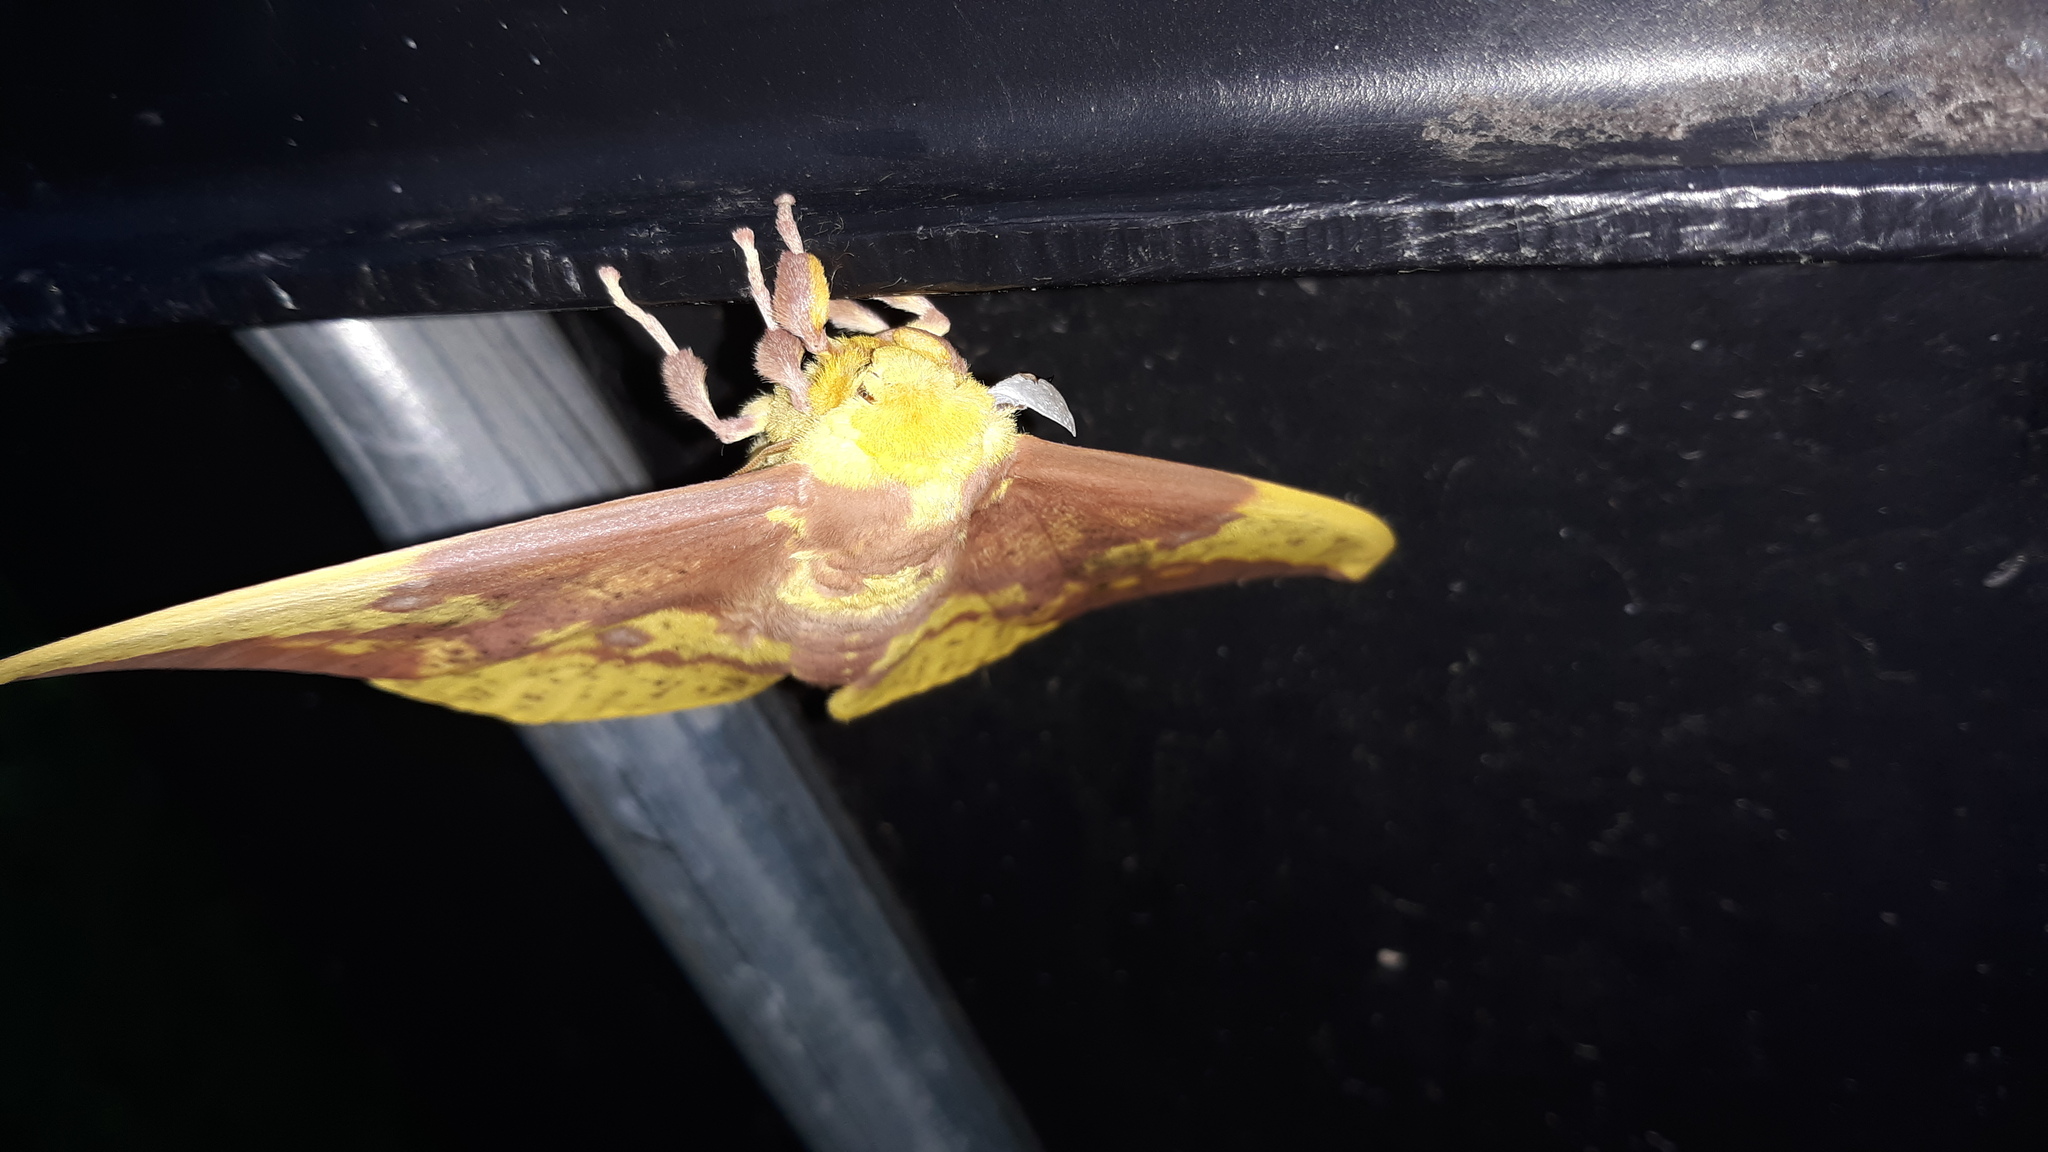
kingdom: Animalia
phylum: Arthropoda
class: Insecta
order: Lepidoptera
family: Saturniidae
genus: Eacles
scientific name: Eacles imperialis
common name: Imperial moth
